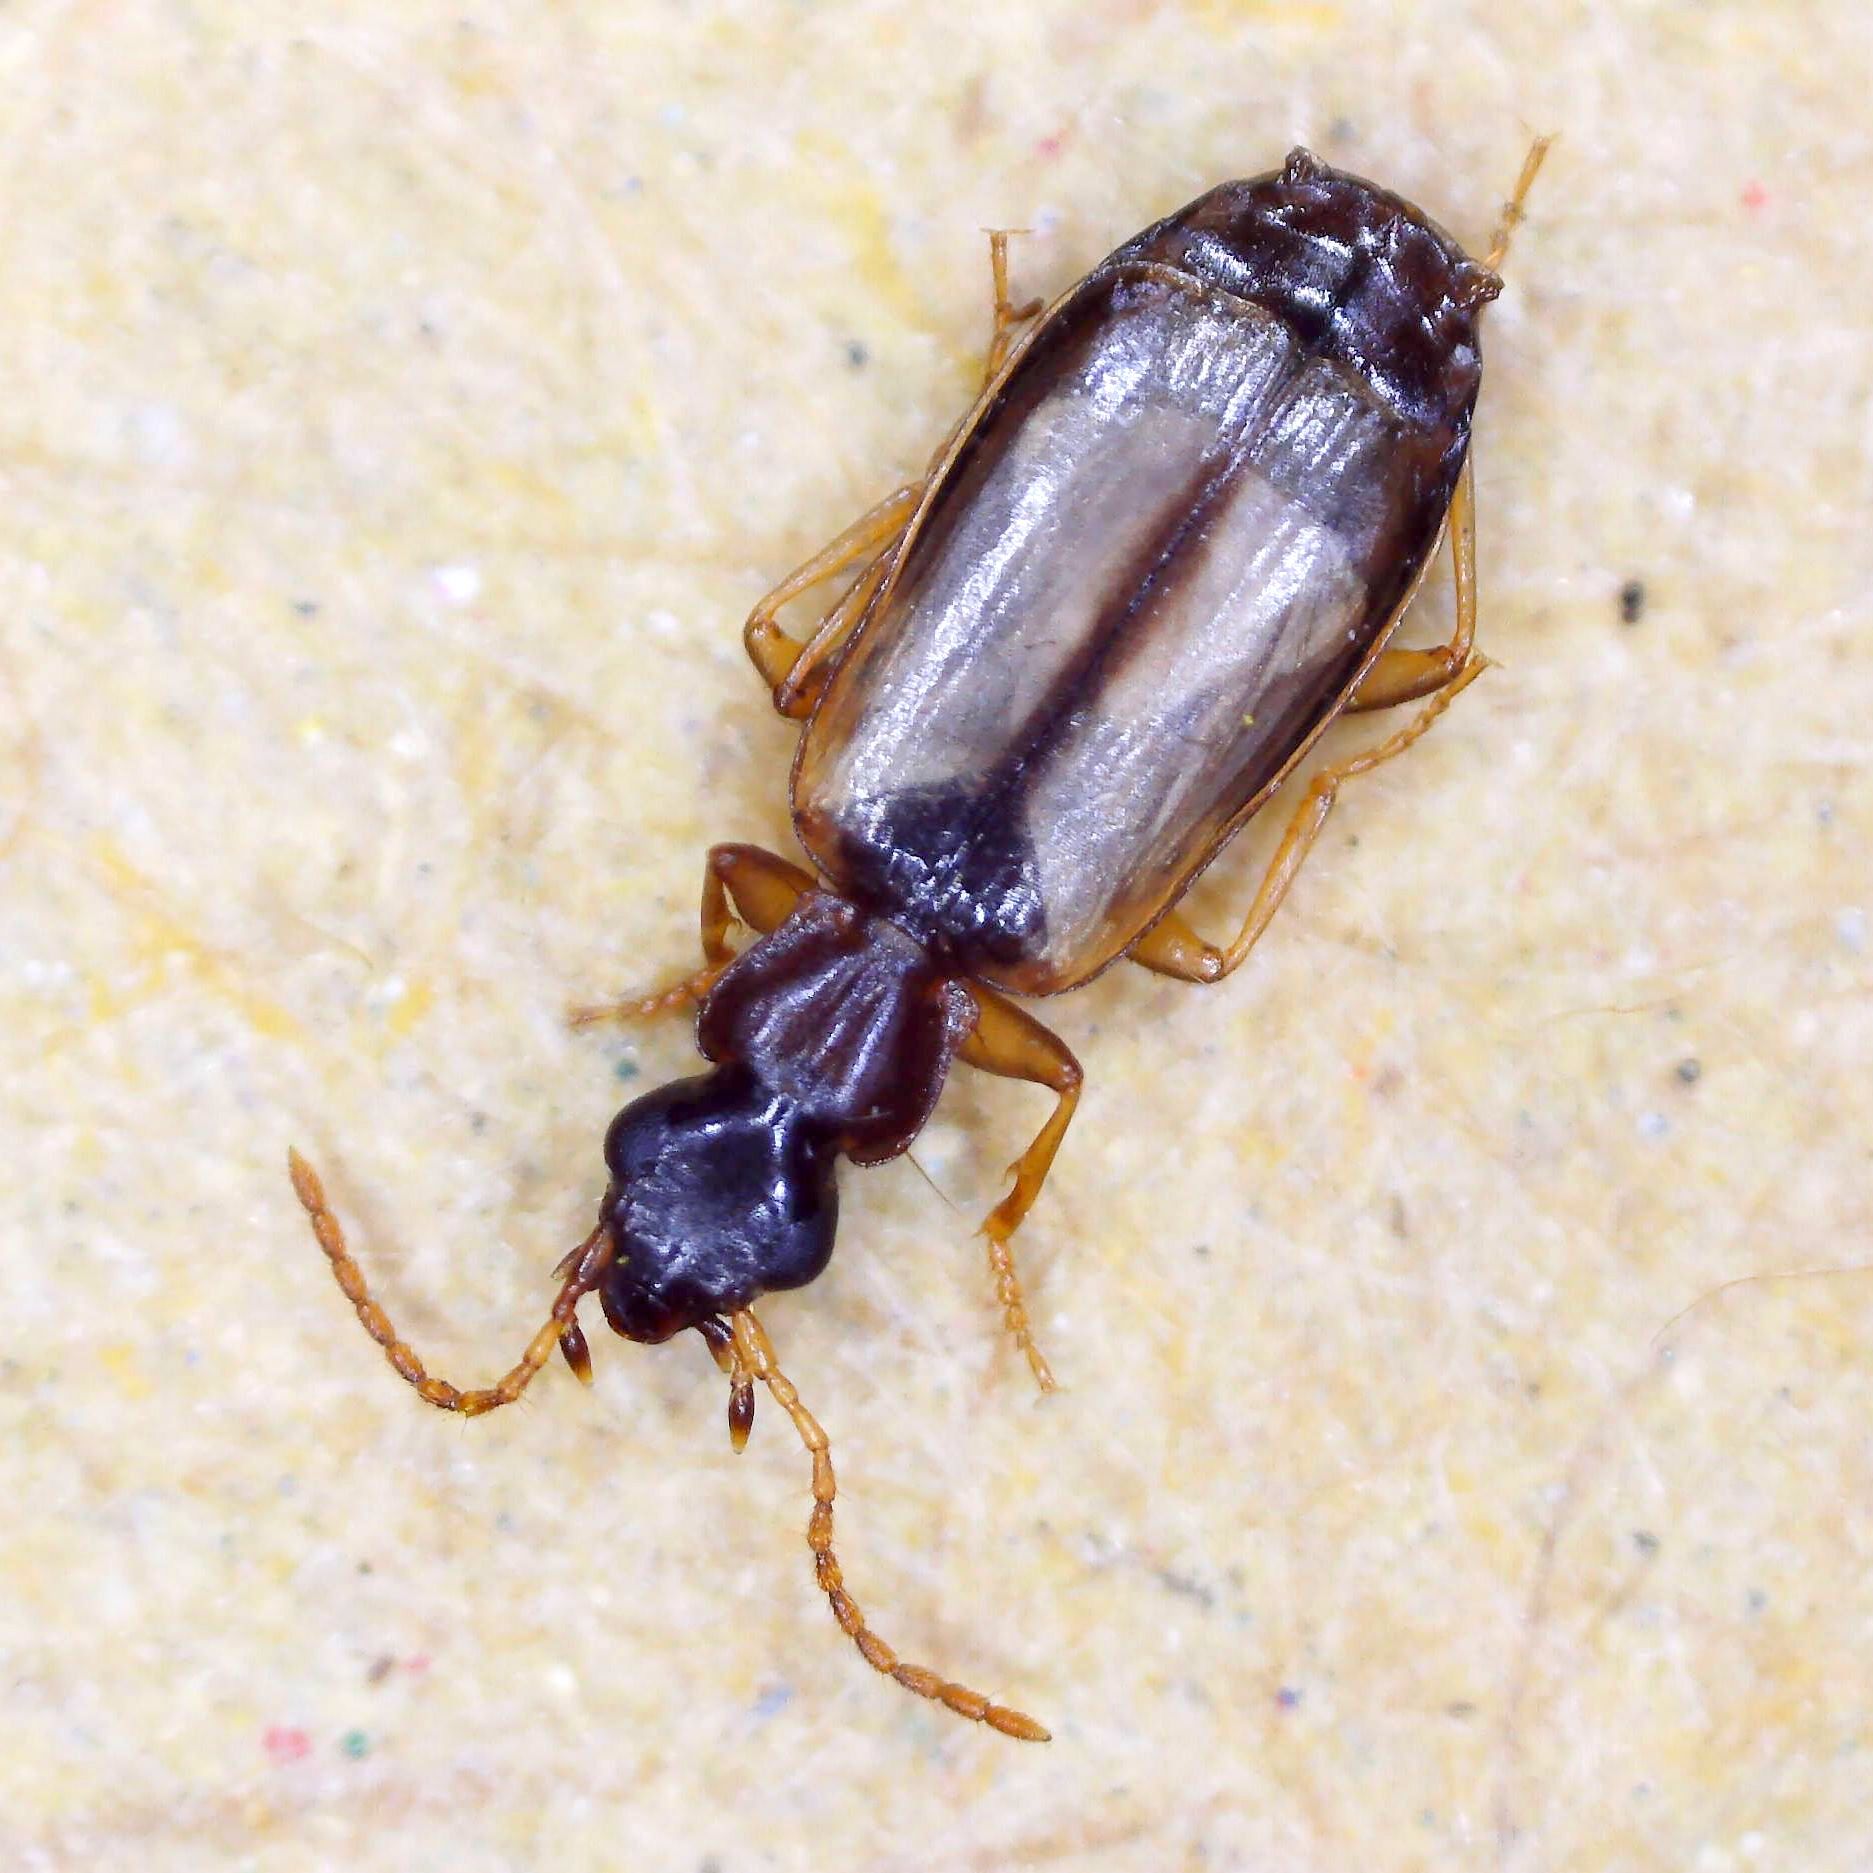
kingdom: Animalia
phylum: Arthropoda
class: Insecta
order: Coleoptera
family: Carabidae
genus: Philorhizus
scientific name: Philorhizus melanocephalus
